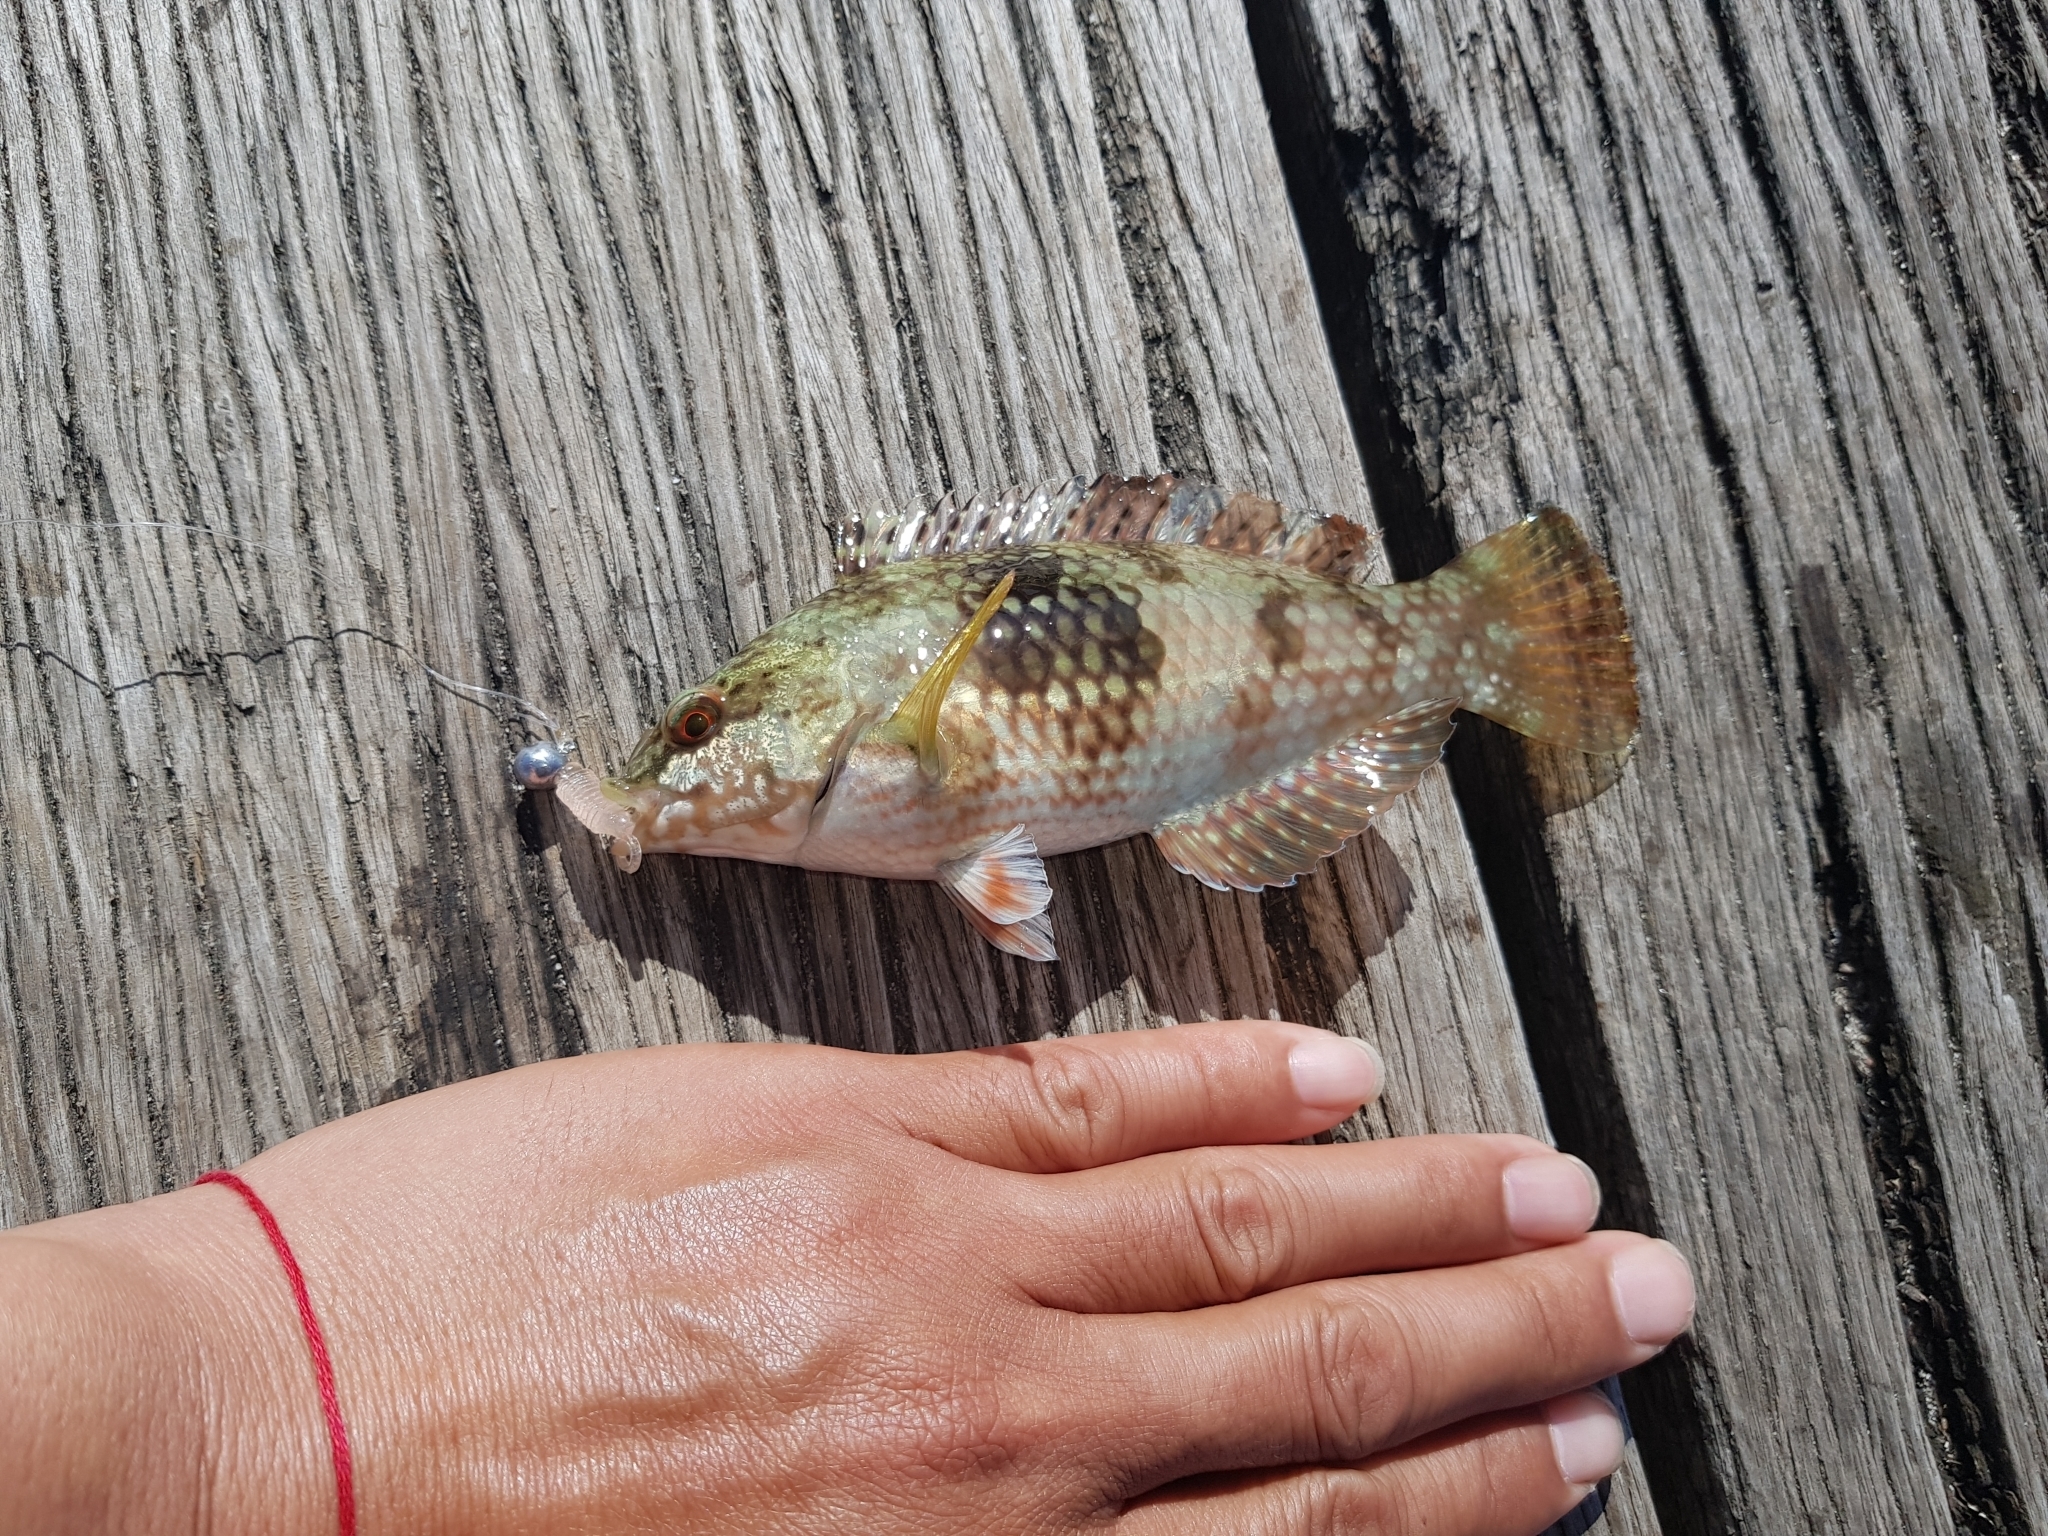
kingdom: Animalia
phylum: Chordata
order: Perciformes
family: Labridae
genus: Notolabrus
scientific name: Notolabrus tetricus
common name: Blue-throated parrotfish
